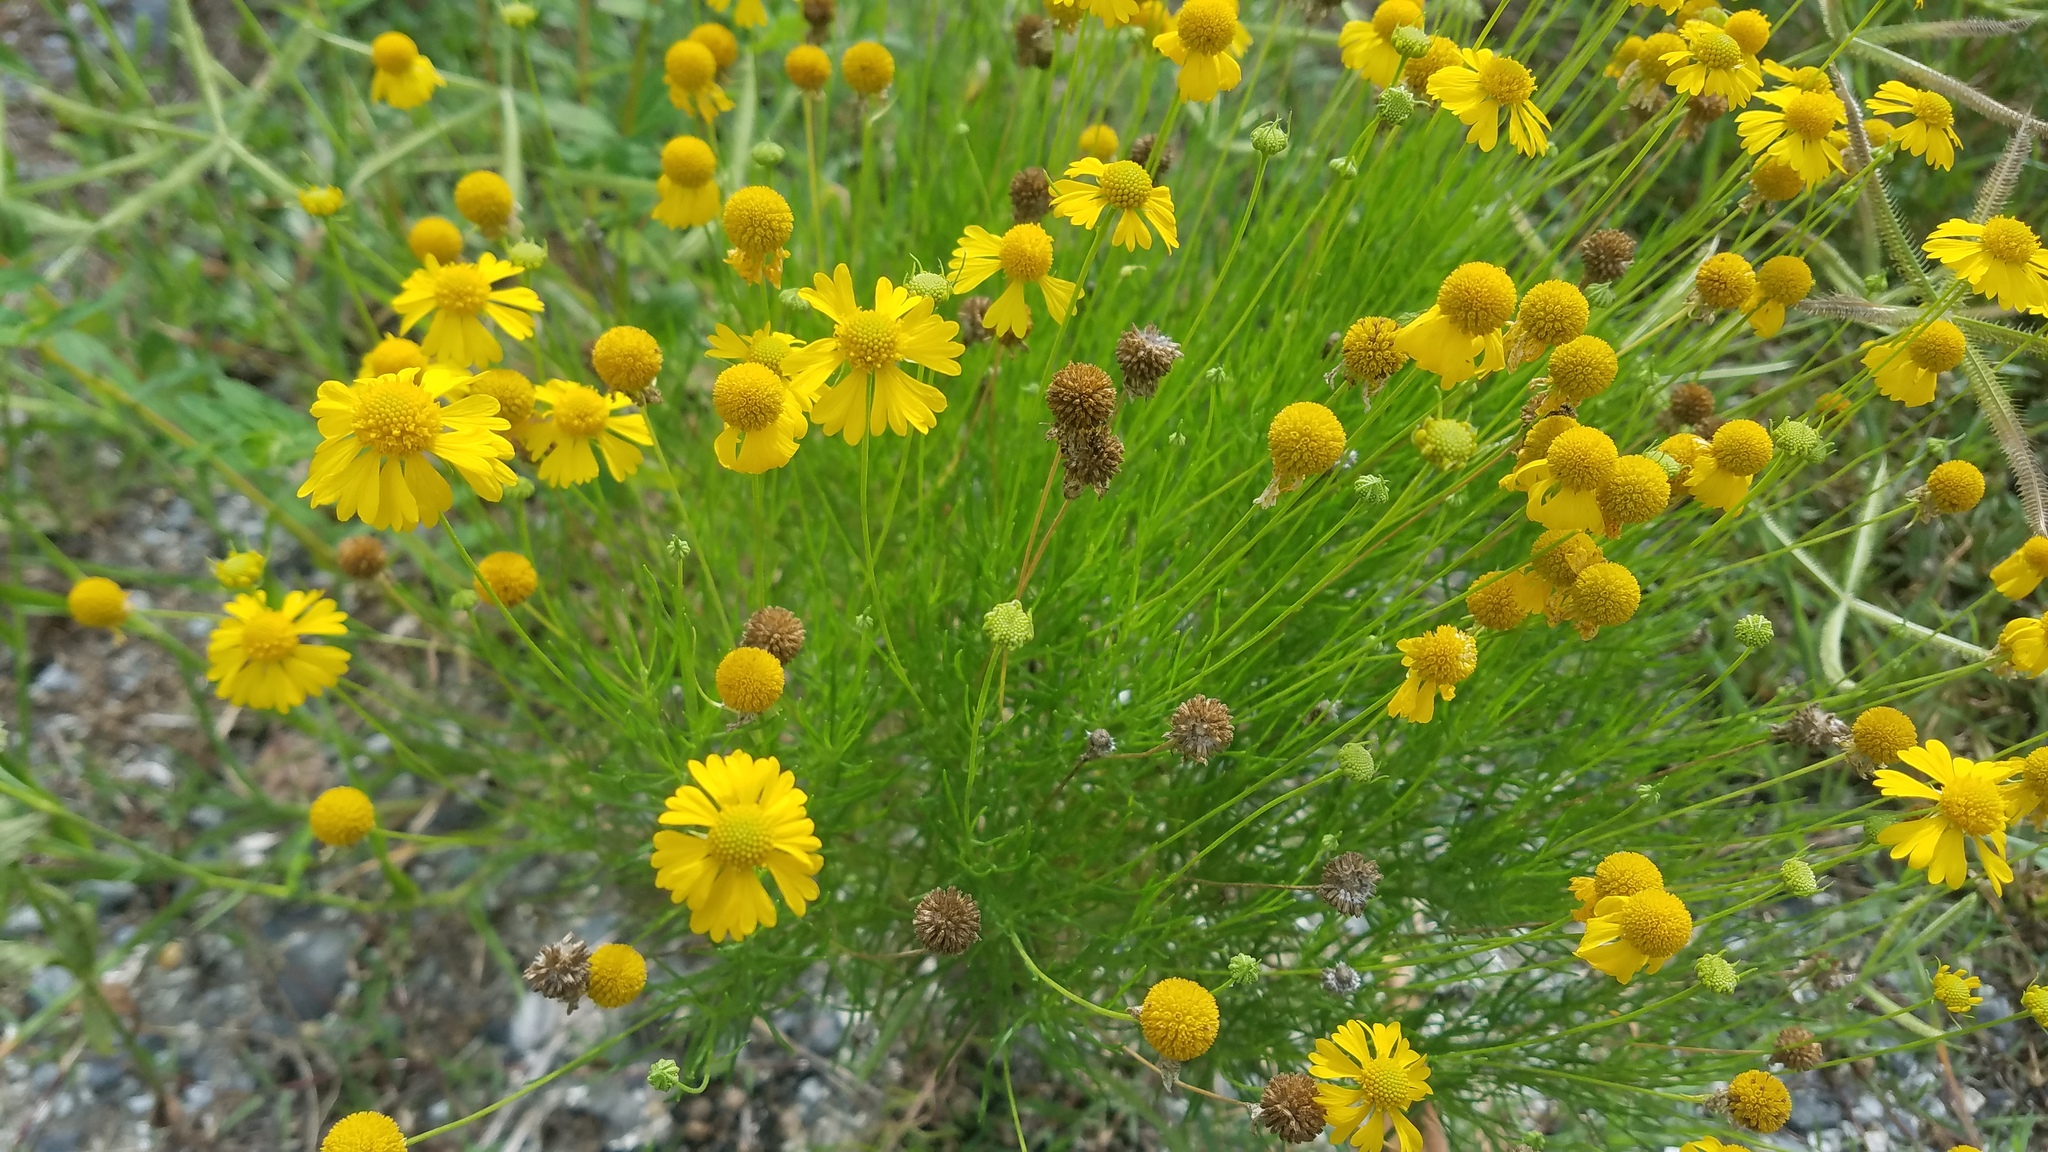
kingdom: Plantae
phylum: Tracheophyta
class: Magnoliopsida
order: Asterales
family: Asteraceae
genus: Helenium
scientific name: Helenium amarum
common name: Bitter sneezeweed
